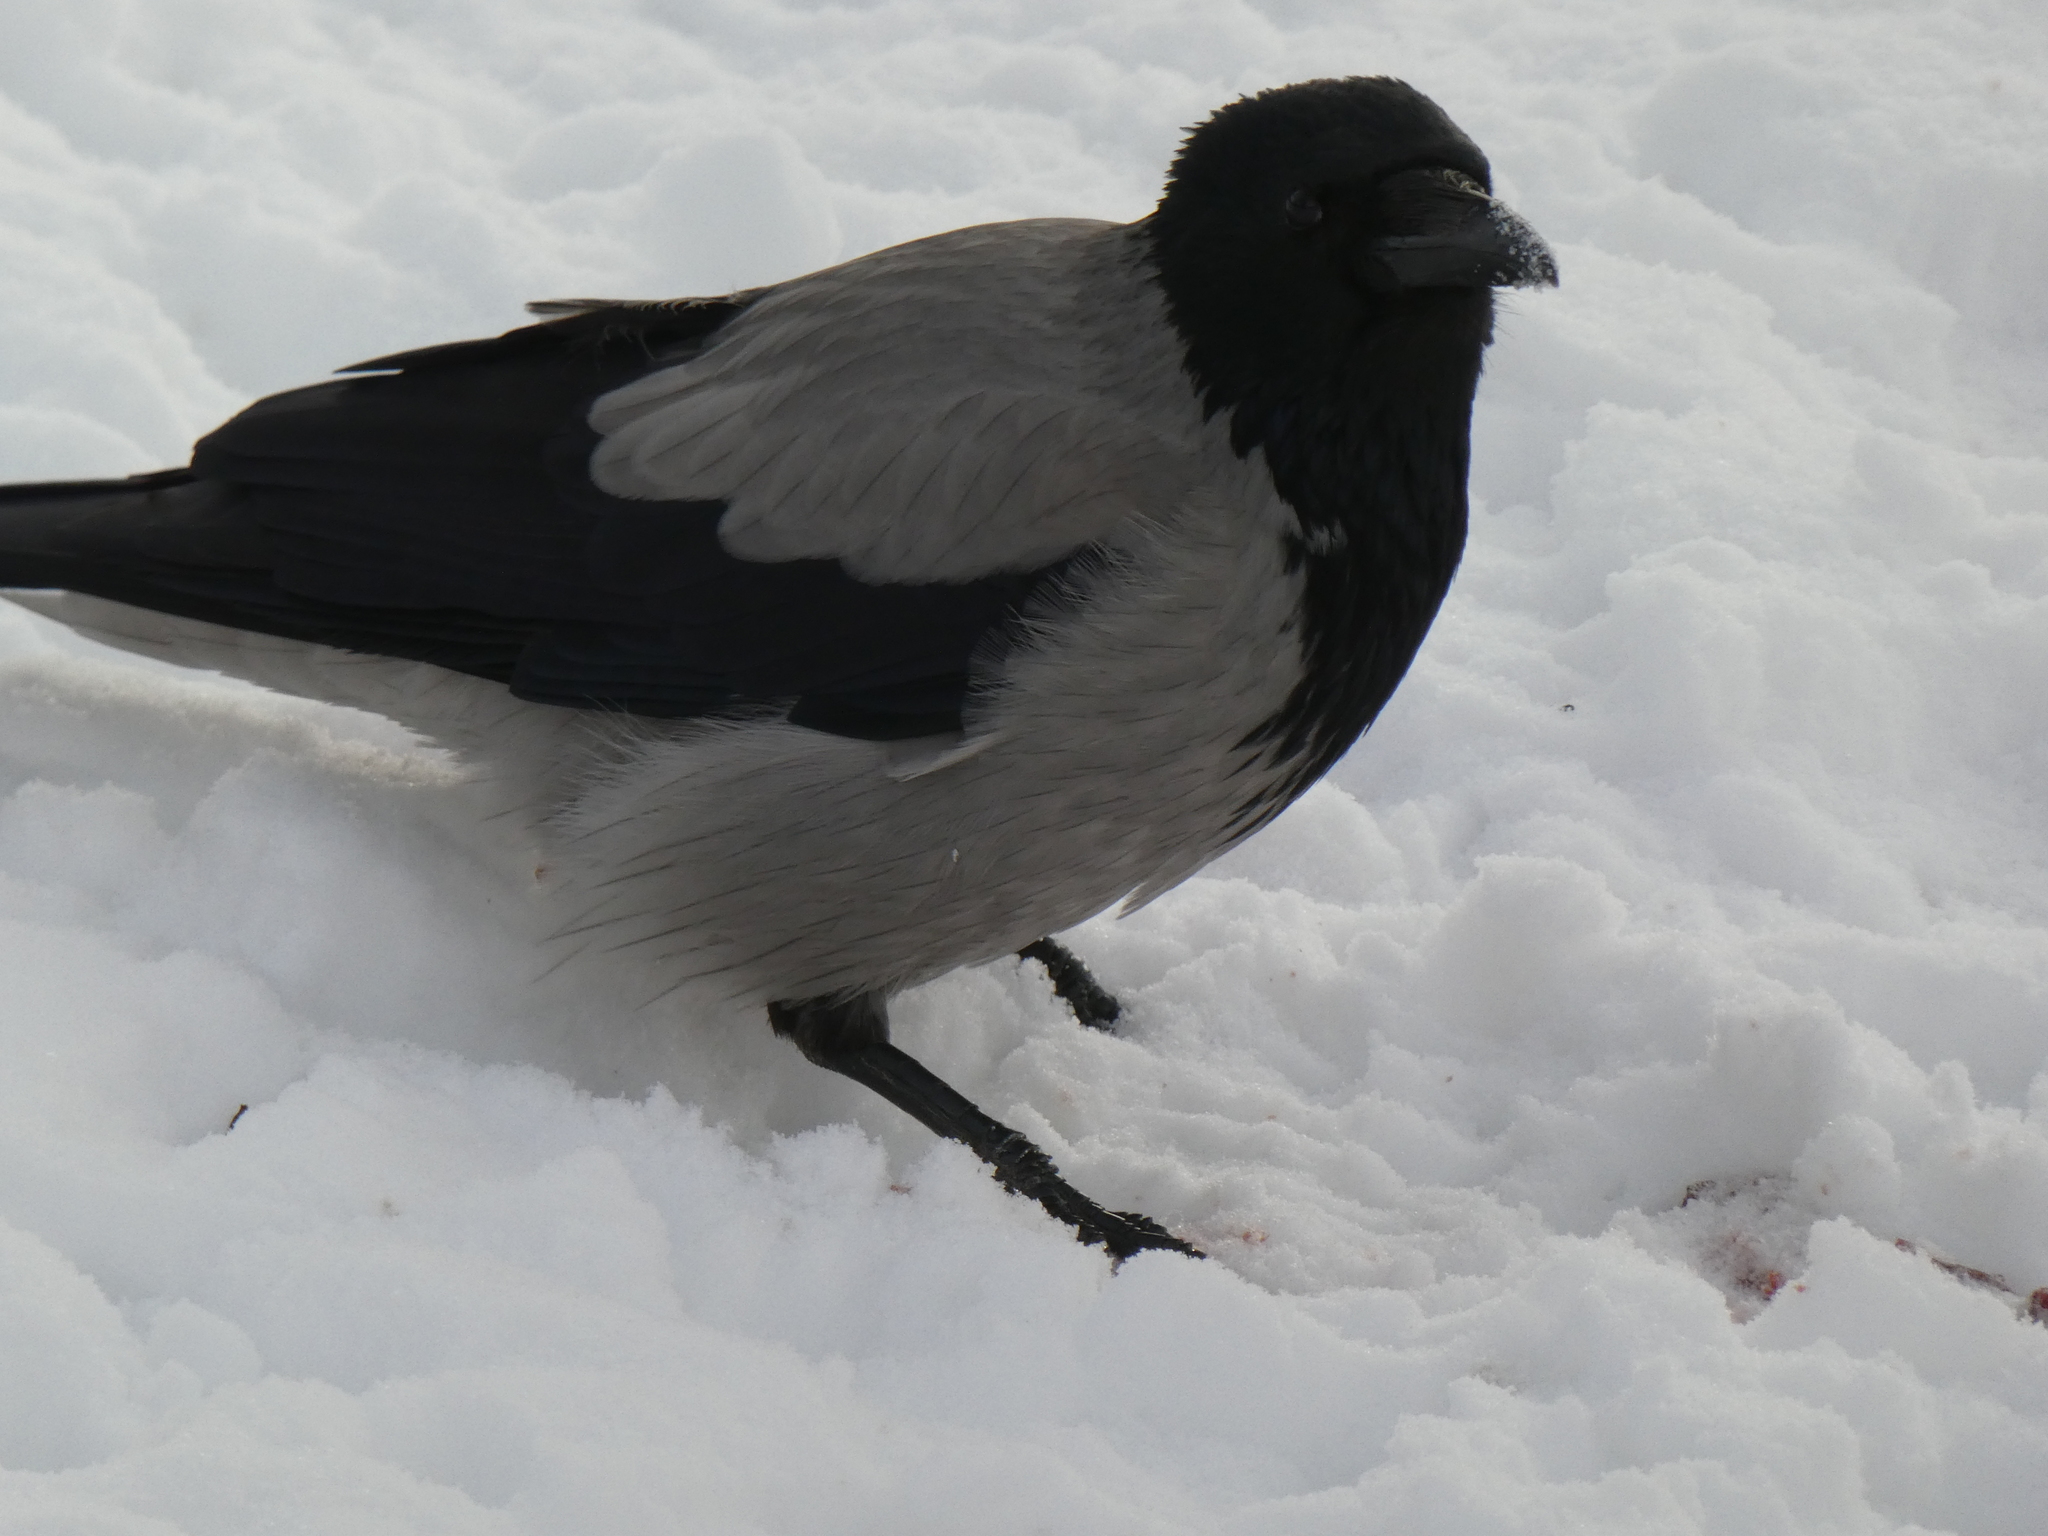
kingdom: Animalia
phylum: Chordata
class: Aves
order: Passeriformes
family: Corvidae
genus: Corvus
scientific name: Corvus cornix
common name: Hooded crow
